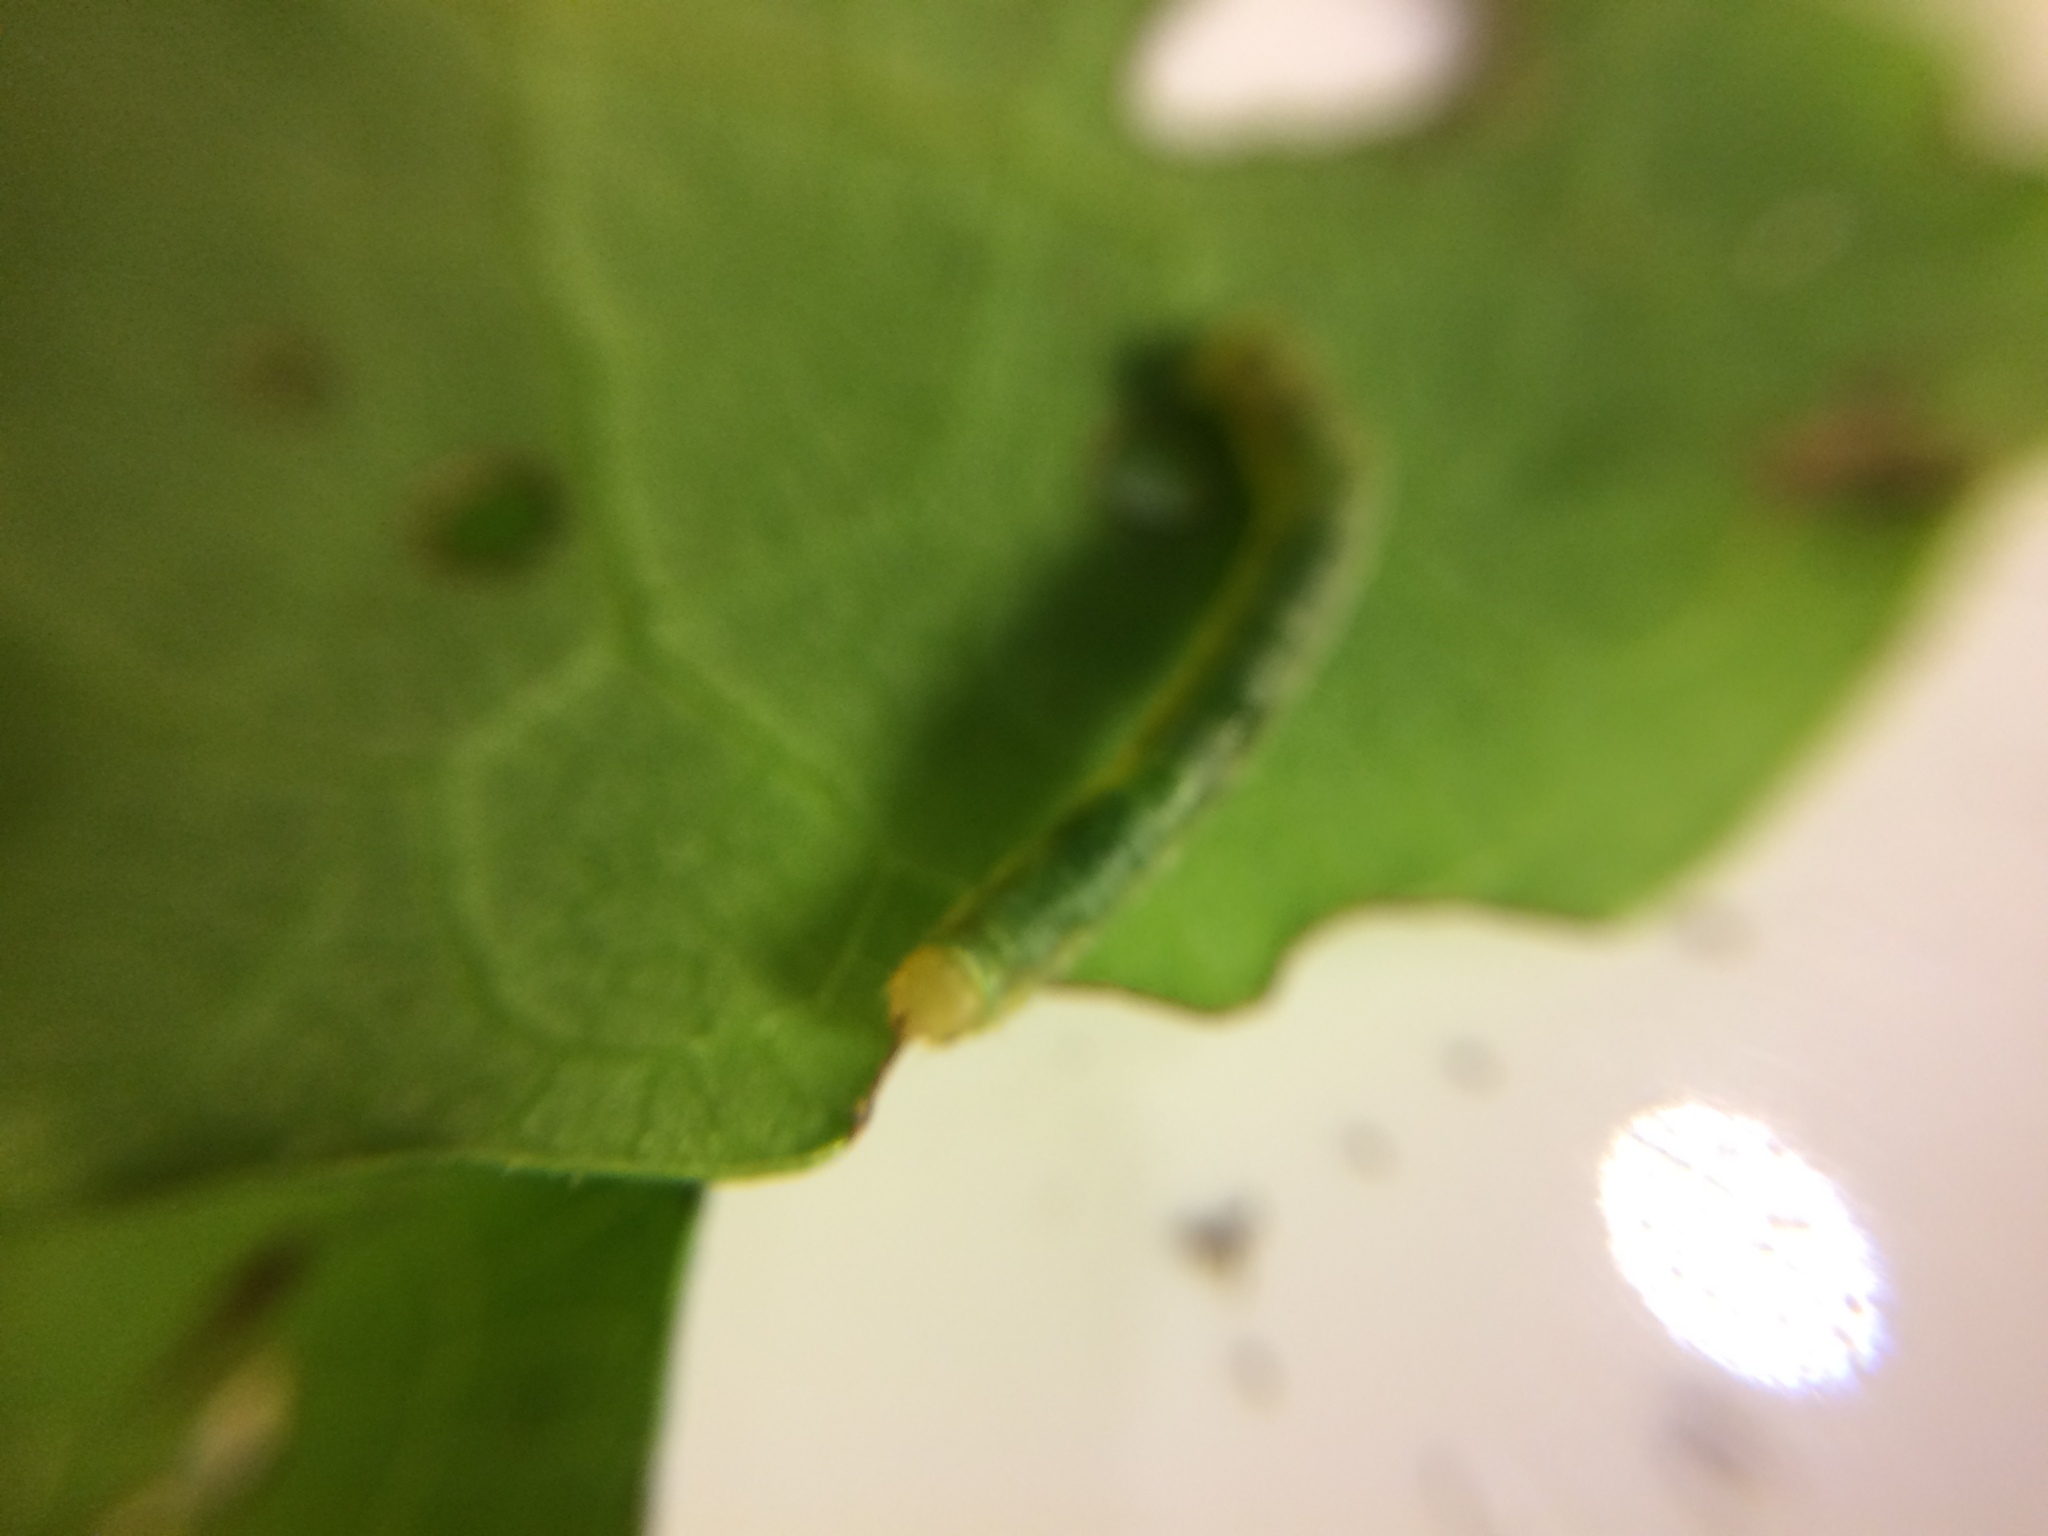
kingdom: Animalia
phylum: Arthropoda
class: Insecta
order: Lepidoptera
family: Geometridae
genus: Cleora
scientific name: Cleora scriptaria
